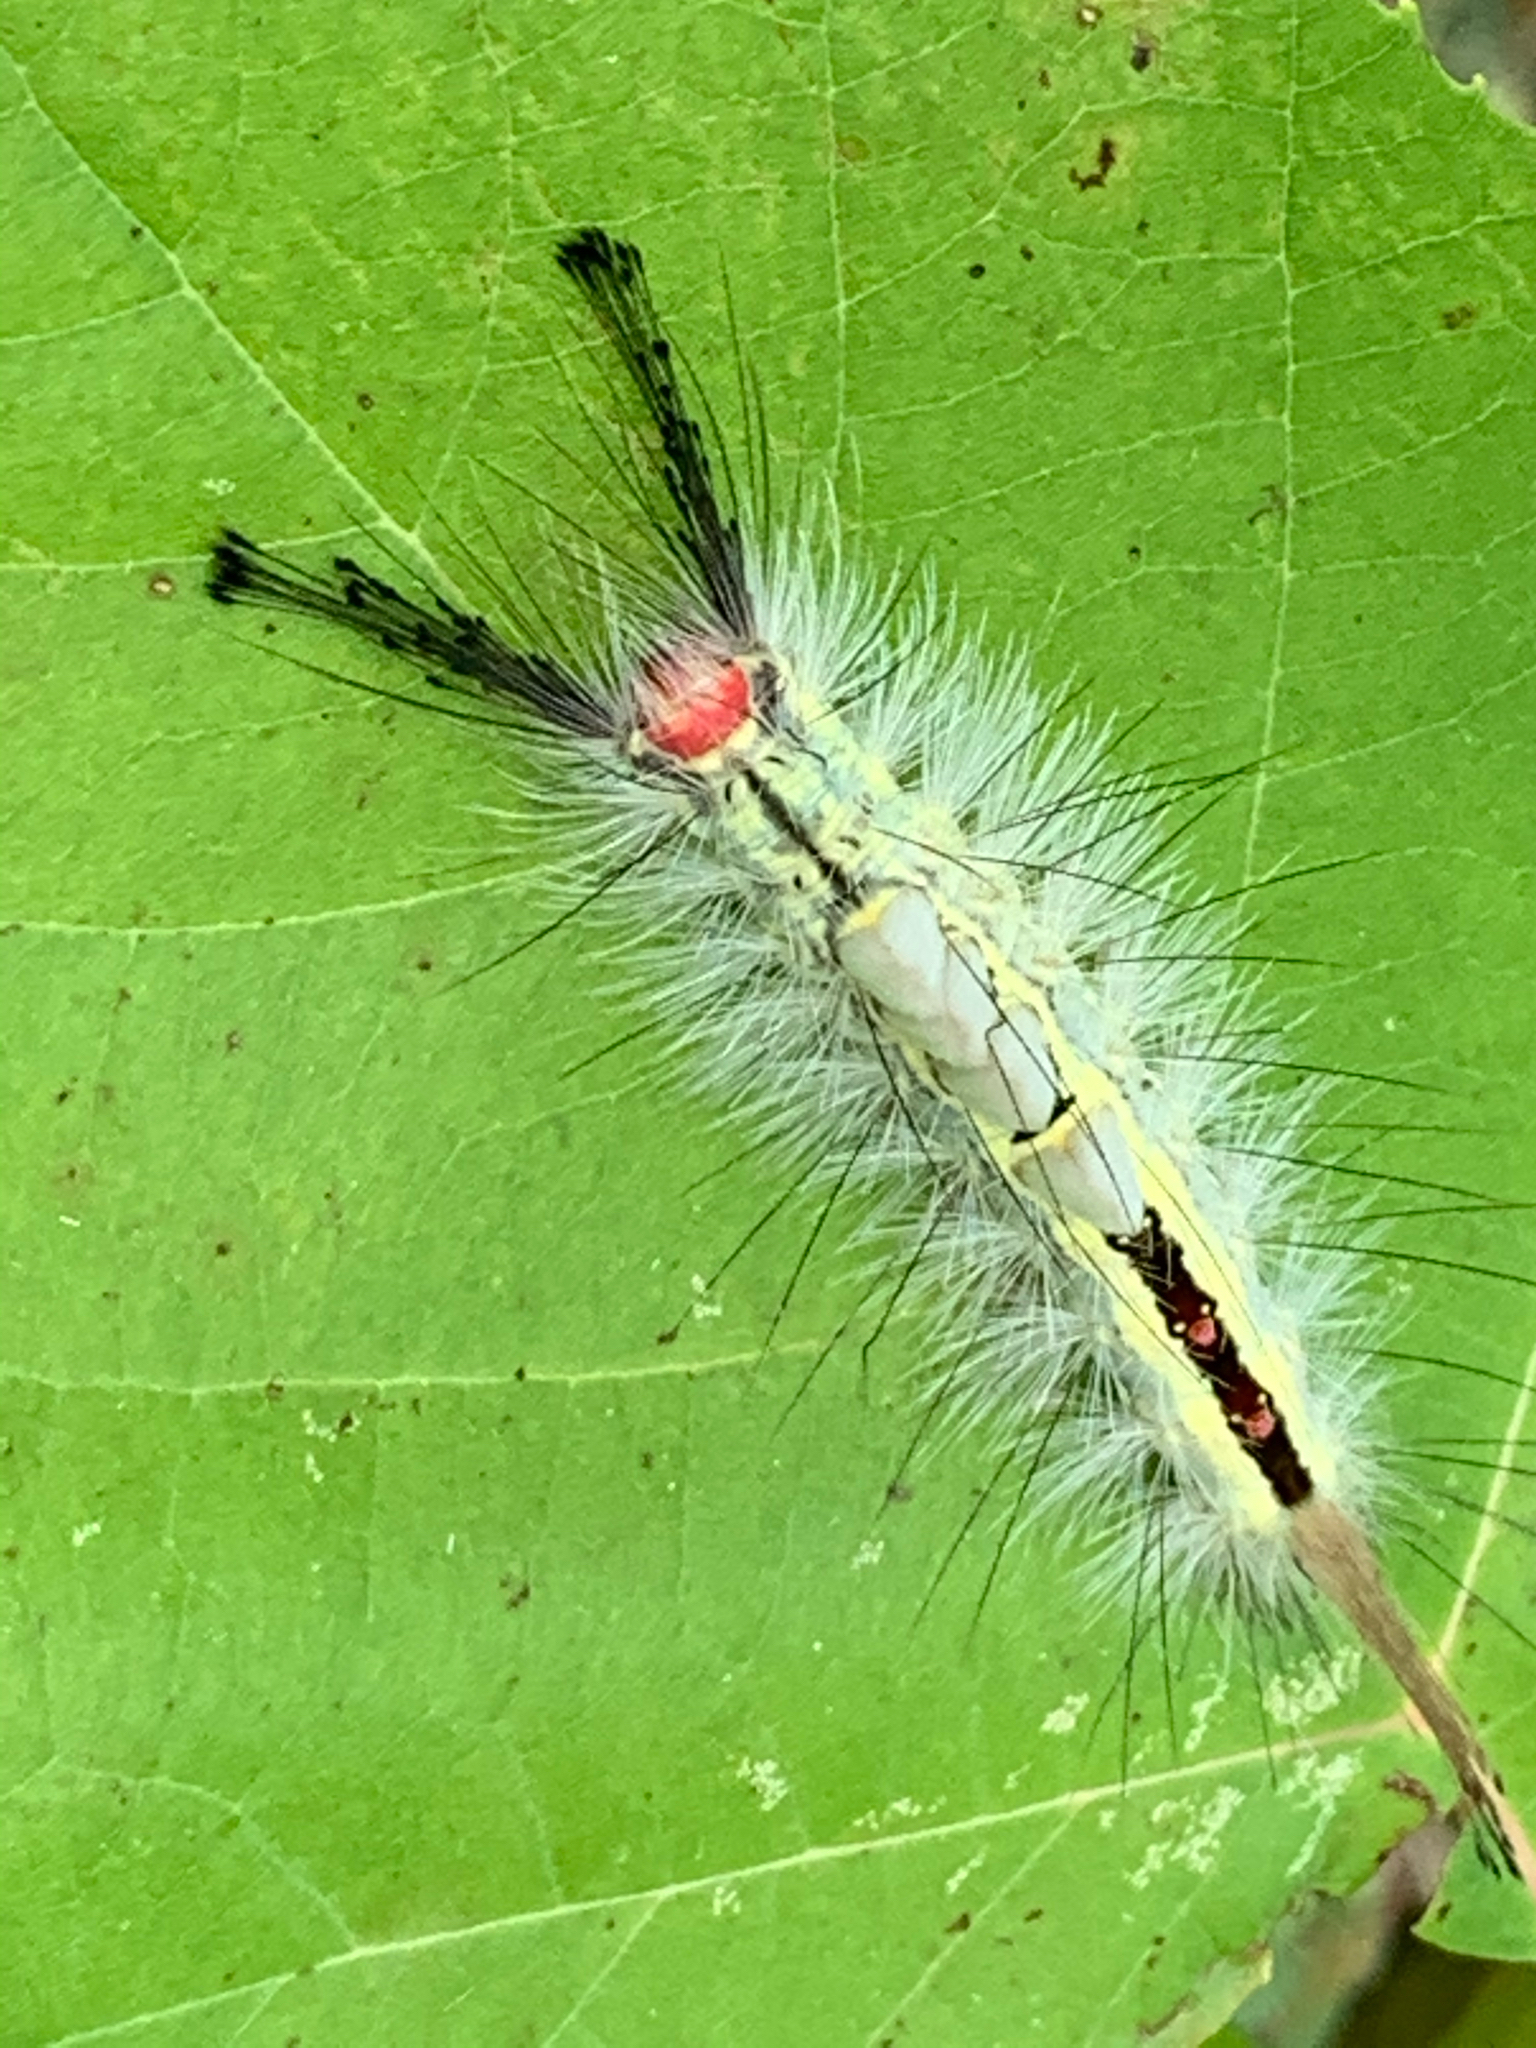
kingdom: Animalia
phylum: Arthropoda
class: Insecta
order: Lepidoptera
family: Erebidae
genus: Orgyia
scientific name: Orgyia leucostigma
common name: White-marked tussock moth
